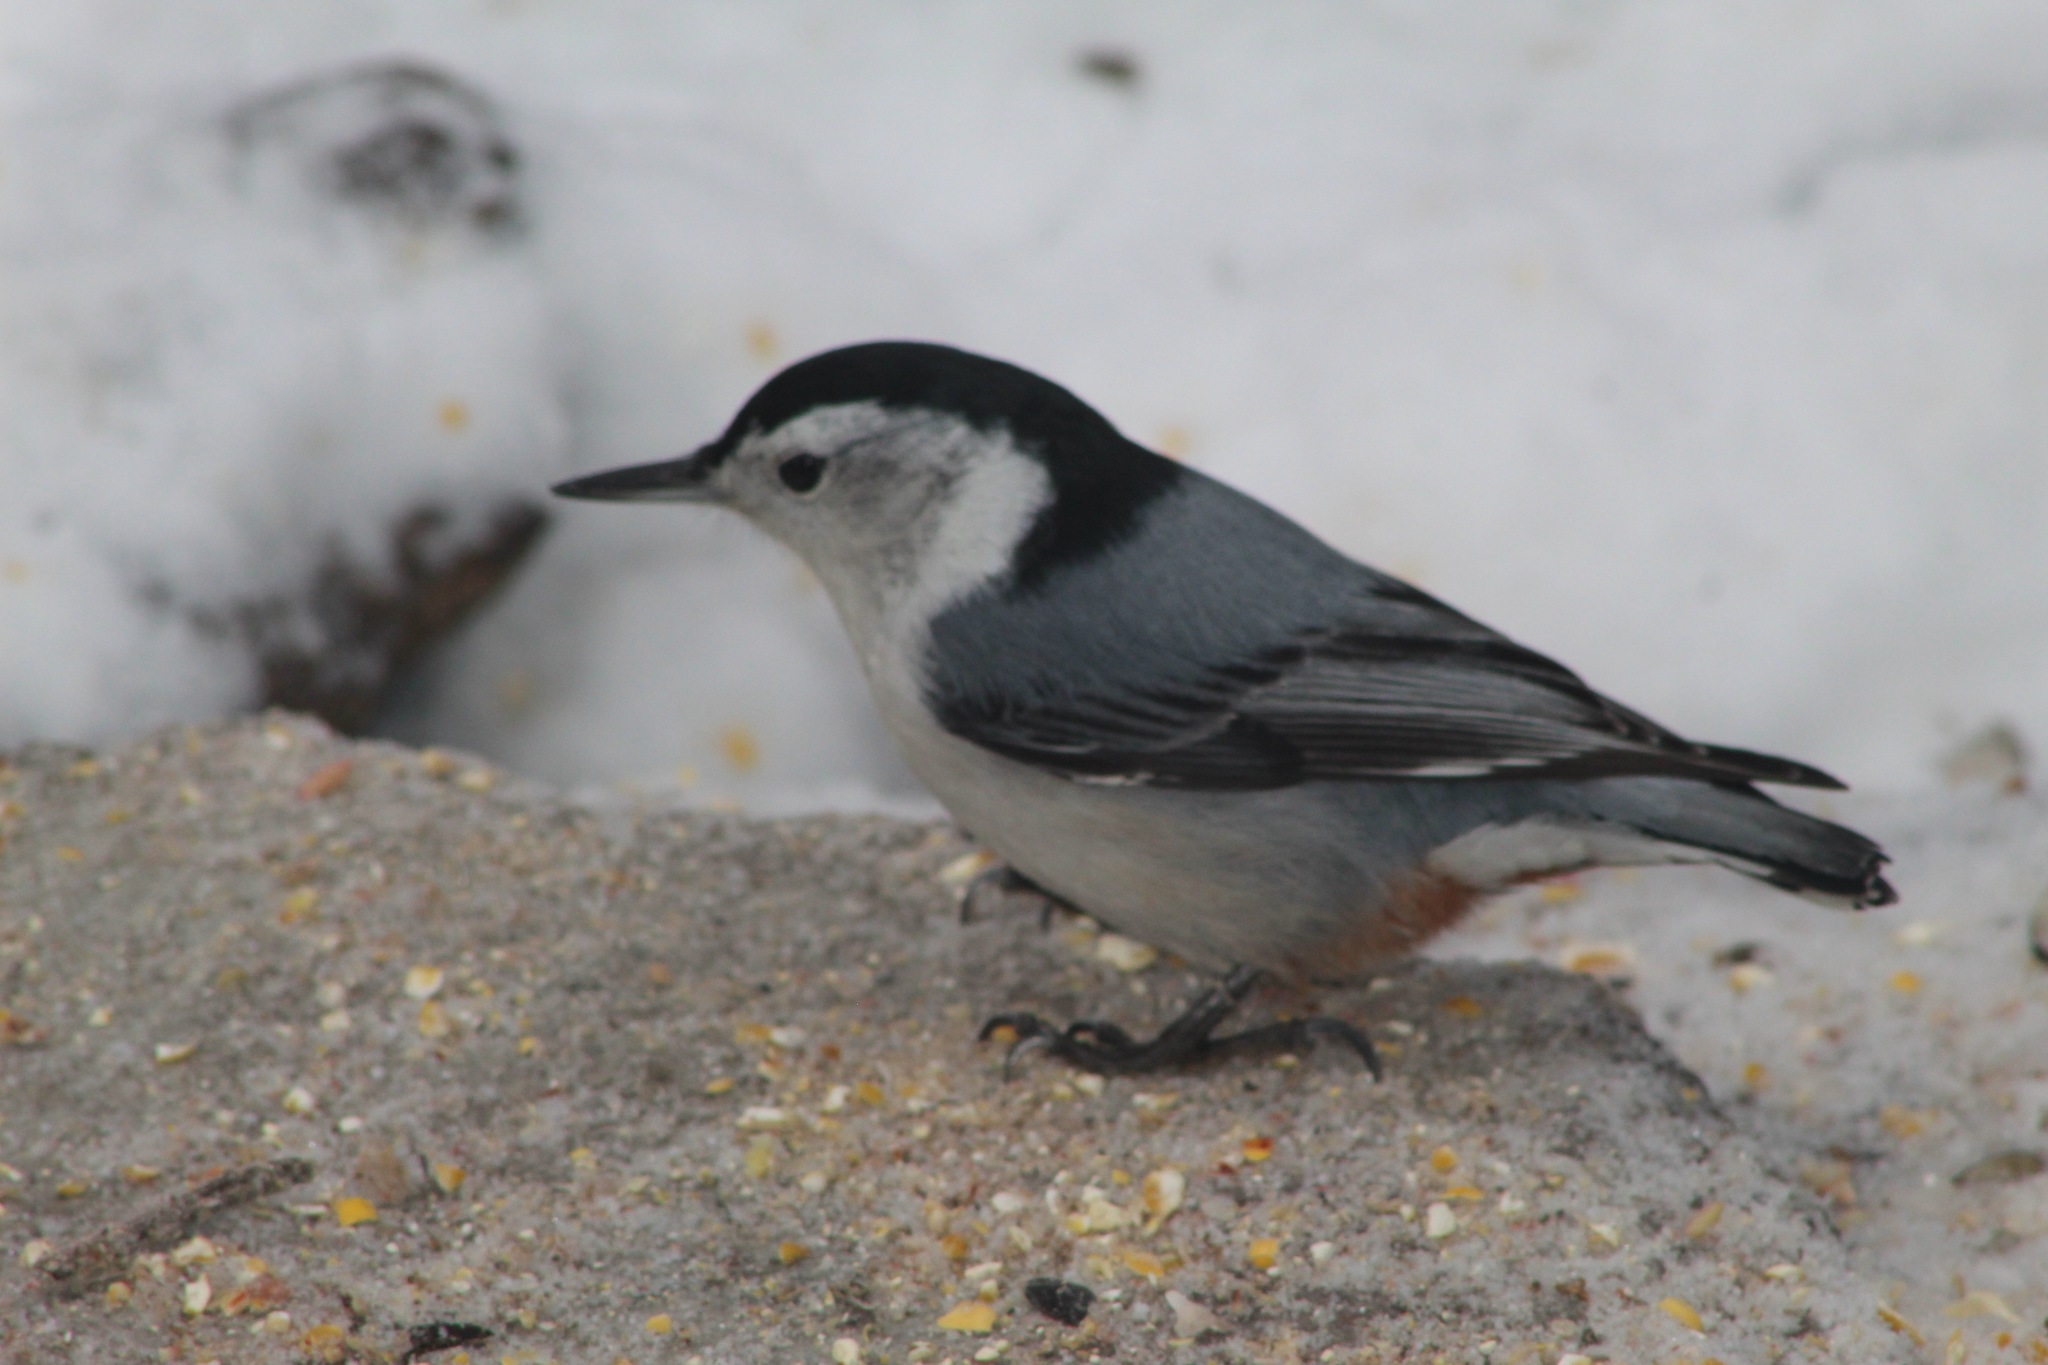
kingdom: Animalia
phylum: Chordata
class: Aves
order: Passeriformes
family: Sittidae
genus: Sitta
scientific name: Sitta carolinensis
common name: White-breasted nuthatch
